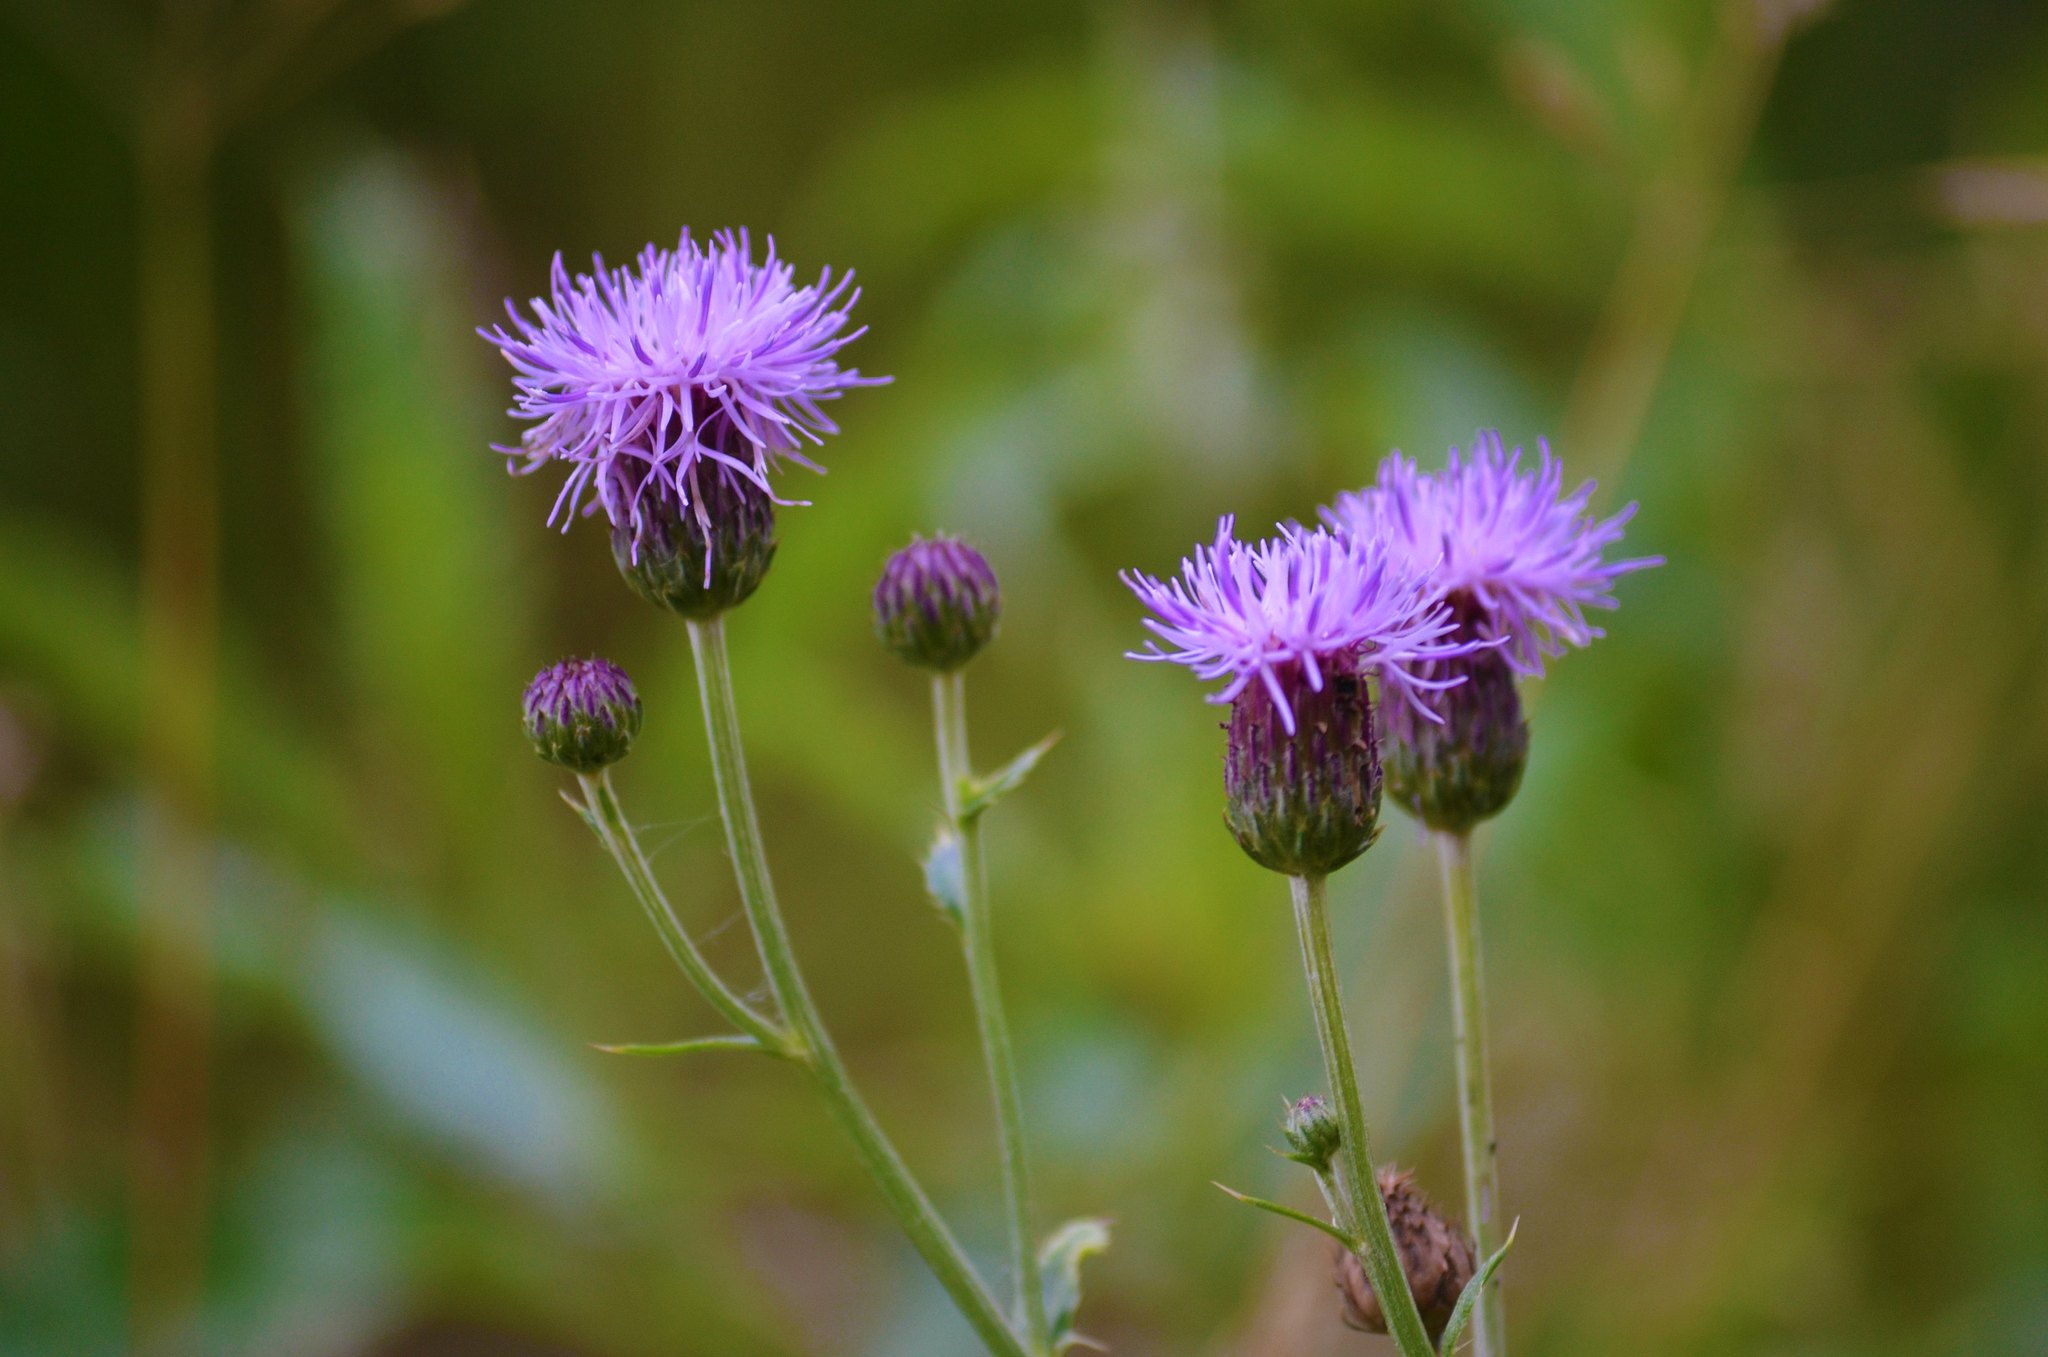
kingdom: Plantae
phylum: Tracheophyta
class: Magnoliopsida
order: Asterales
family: Asteraceae
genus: Cirsium
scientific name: Cirsium arvense
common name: Creeping thistle
